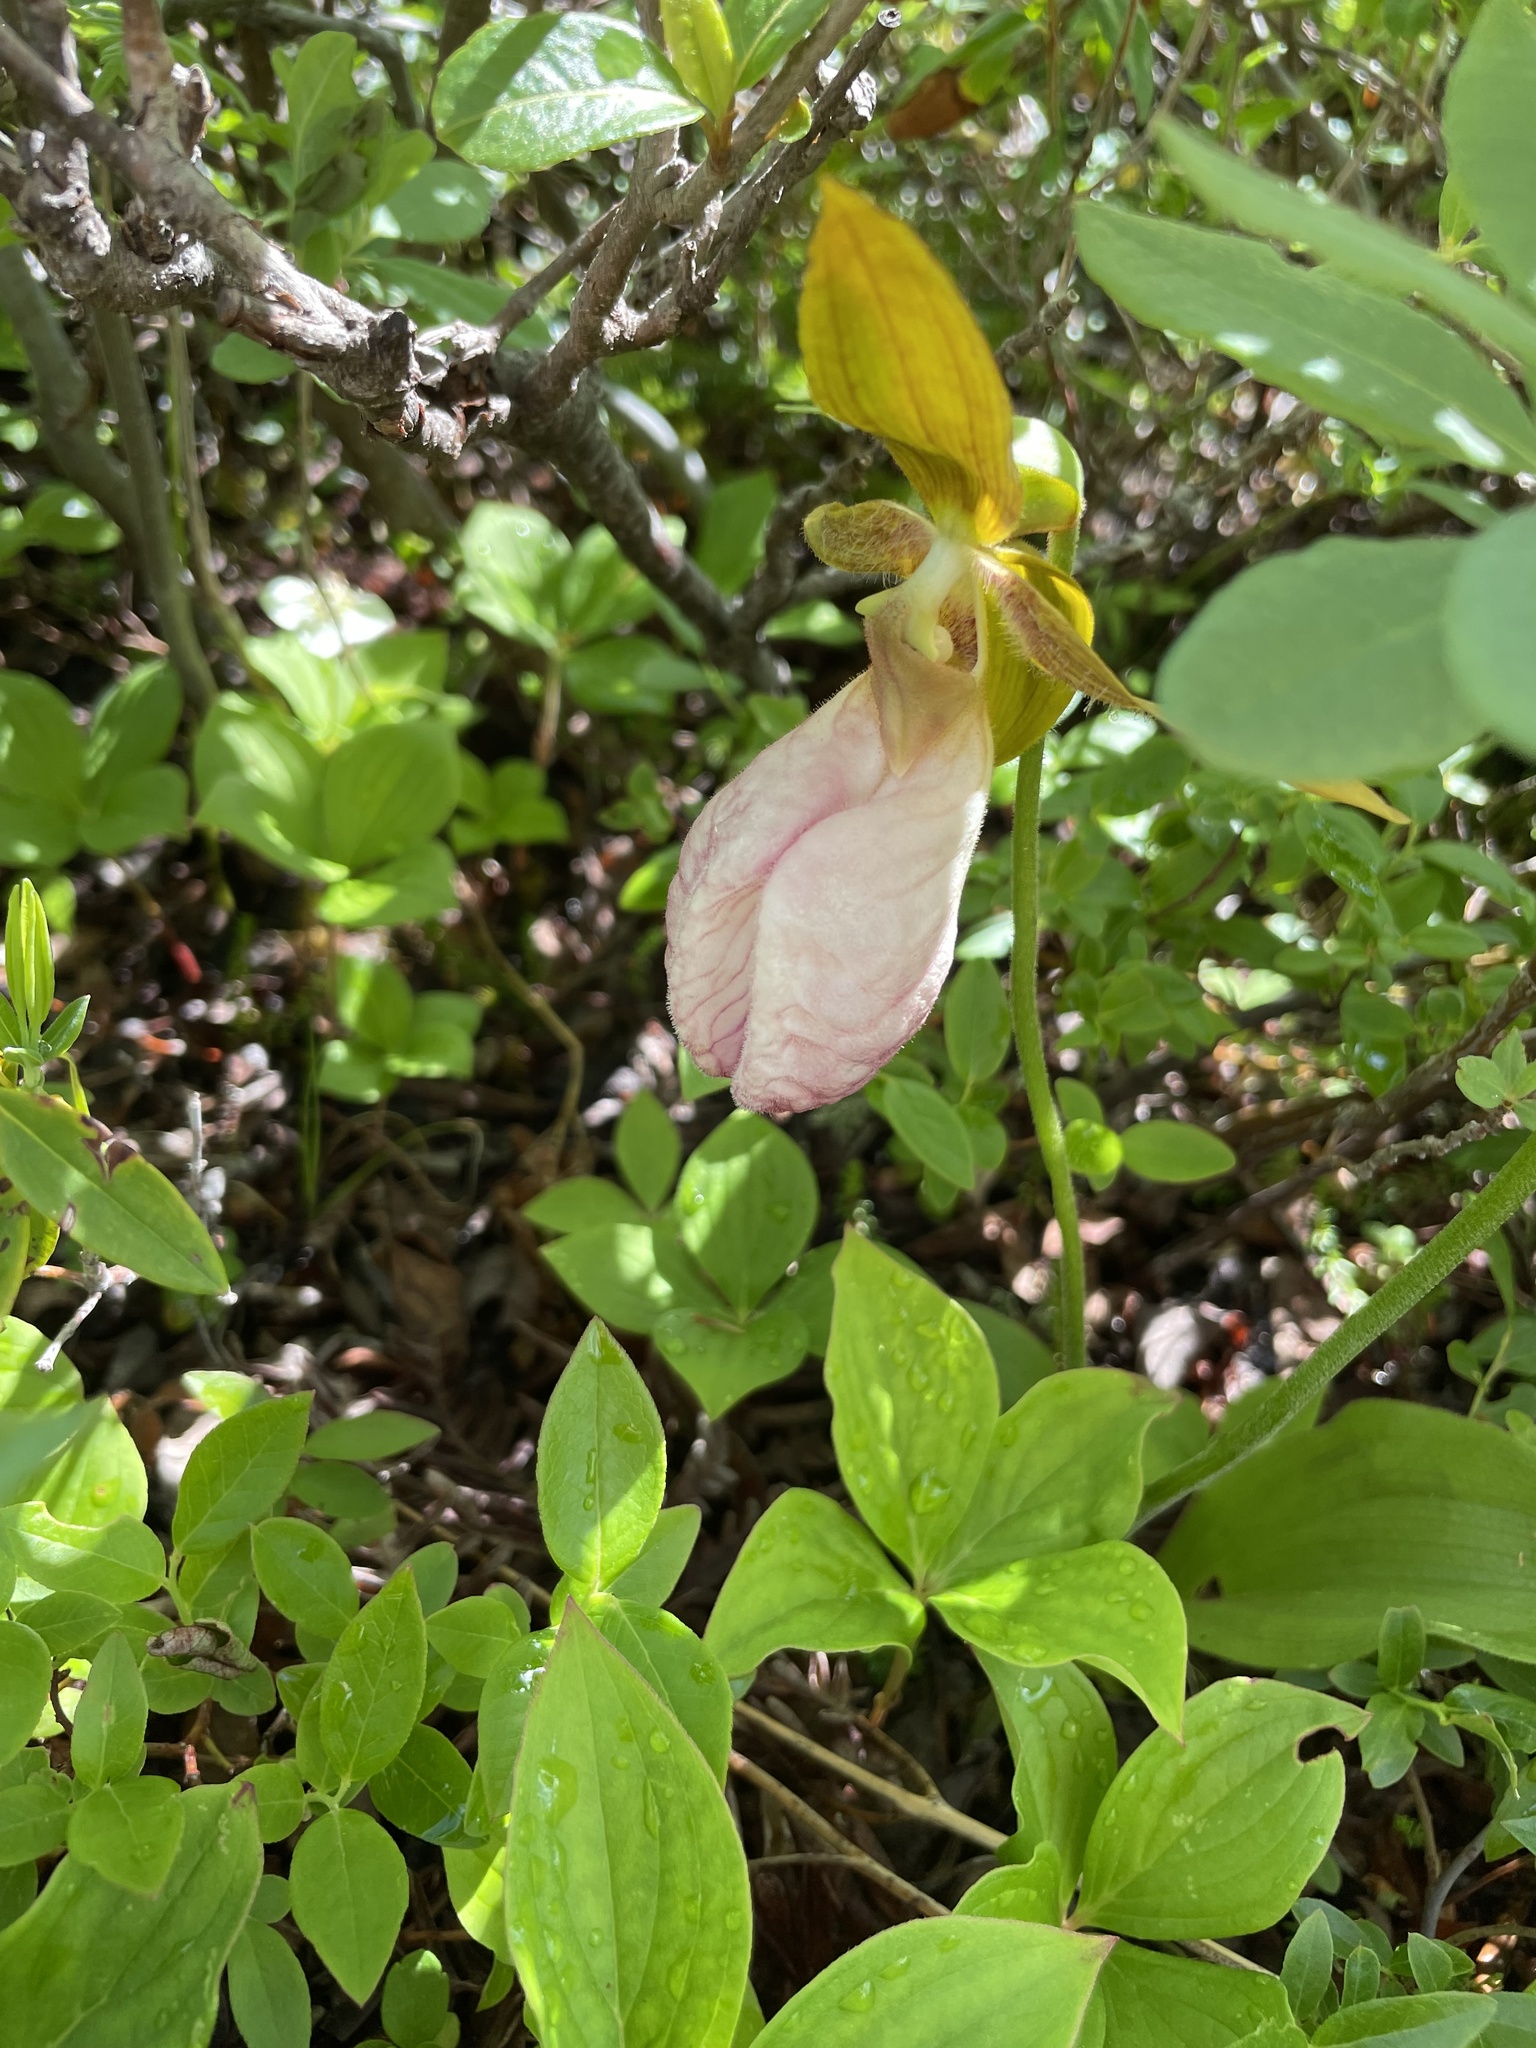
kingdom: Plantae
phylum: Tracheophyta
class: Liliopsida
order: Asparagales
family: Orchidaceae
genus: Cypripedium
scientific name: Cypripedium acaule
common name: Pink lady's-slipper
